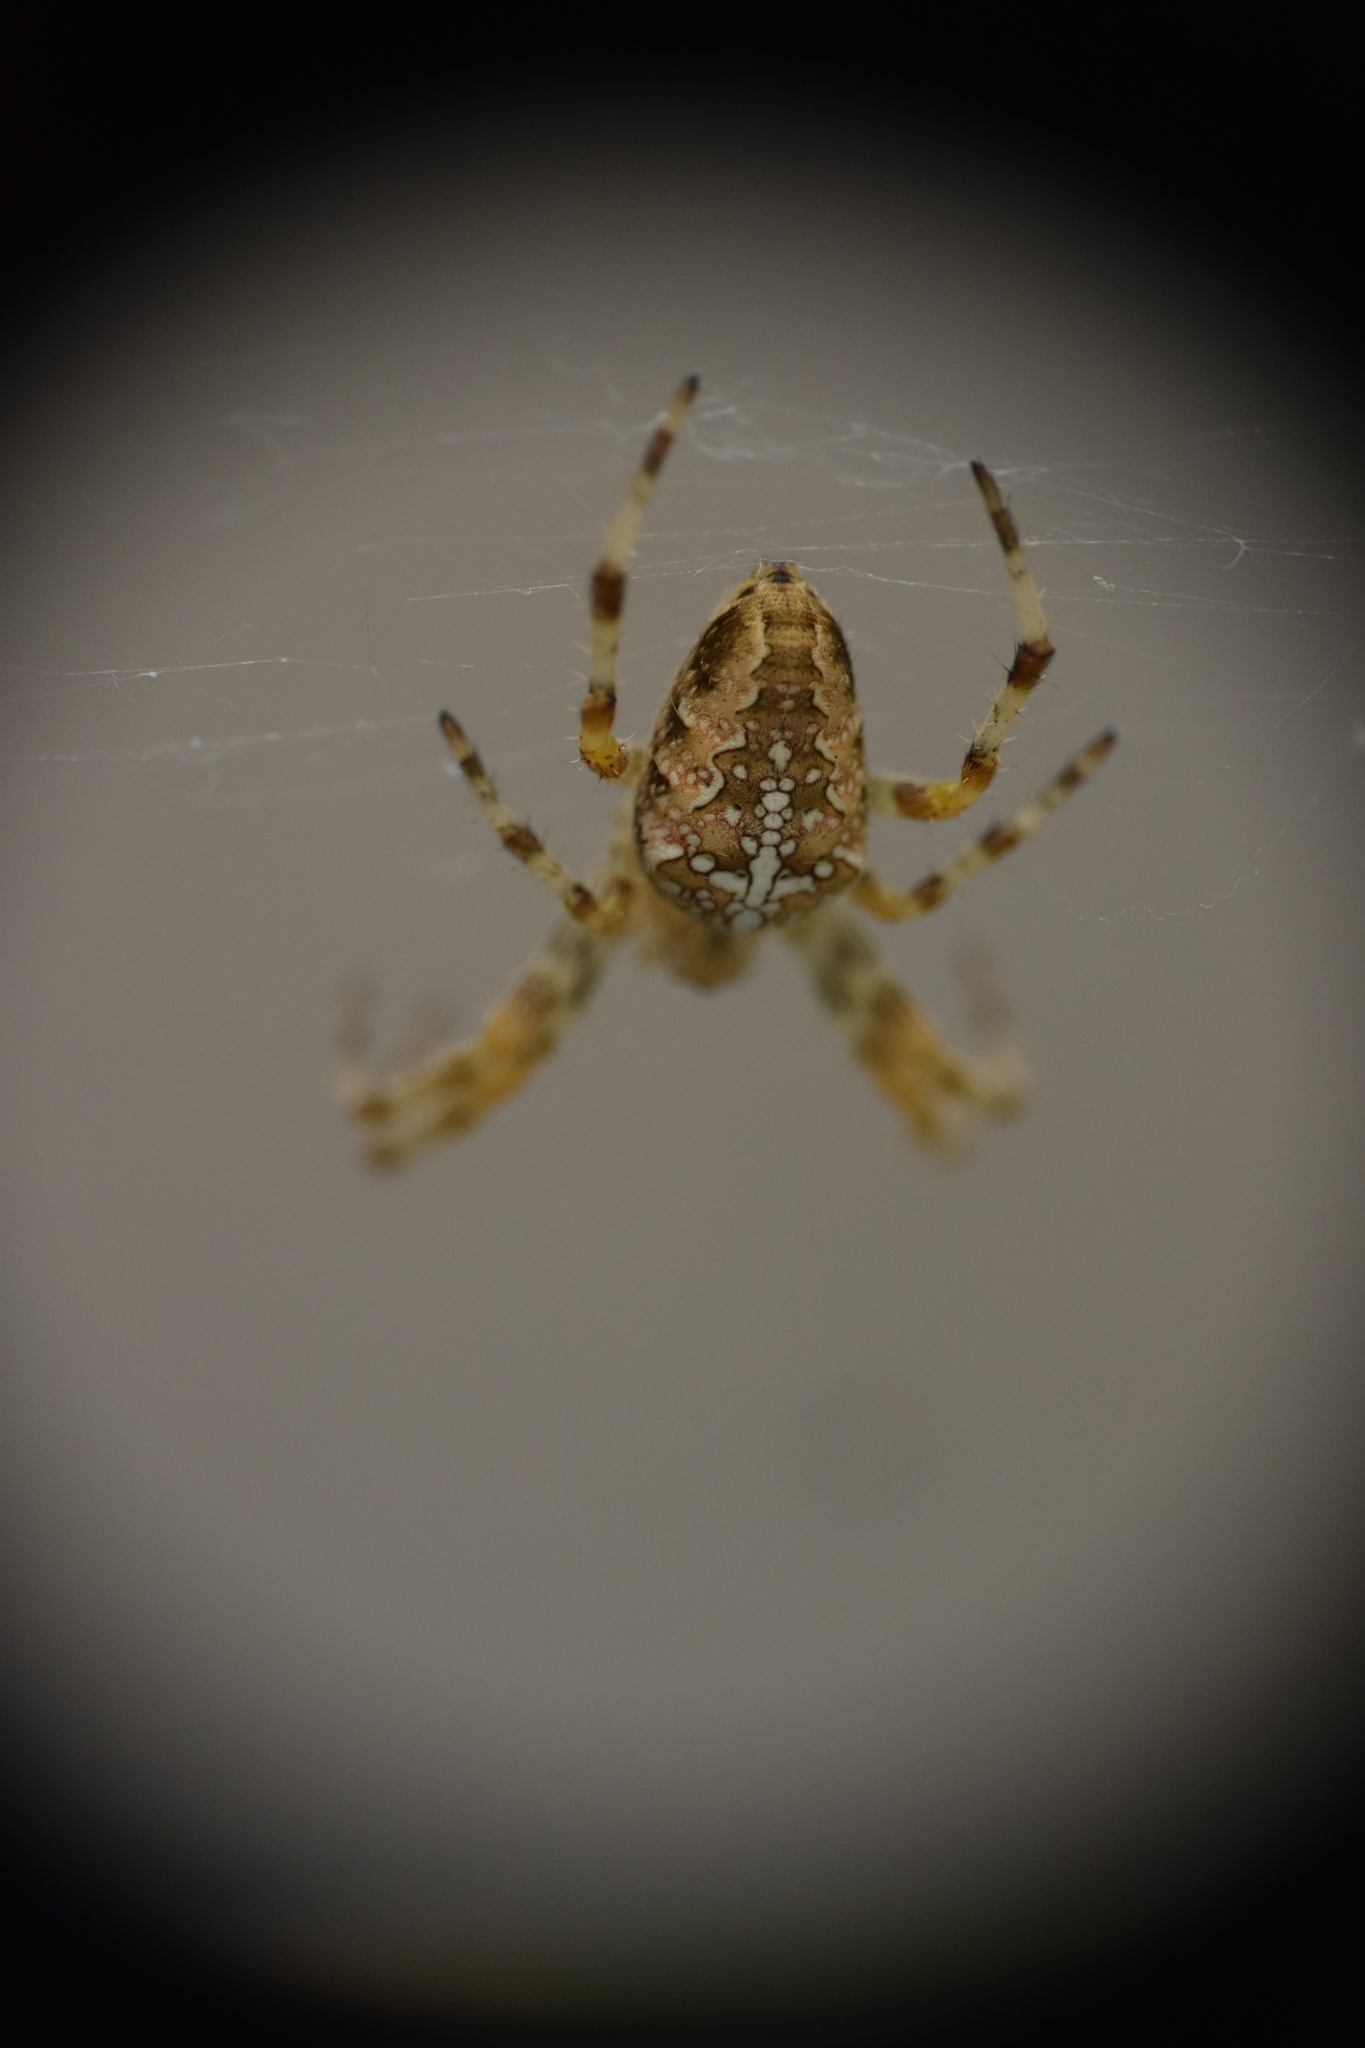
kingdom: Animalia
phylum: Arthropoda
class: Arachnida
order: Araneae
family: Araneidae
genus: Araneus
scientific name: Araneus diadematus
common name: Cross orbweaver
